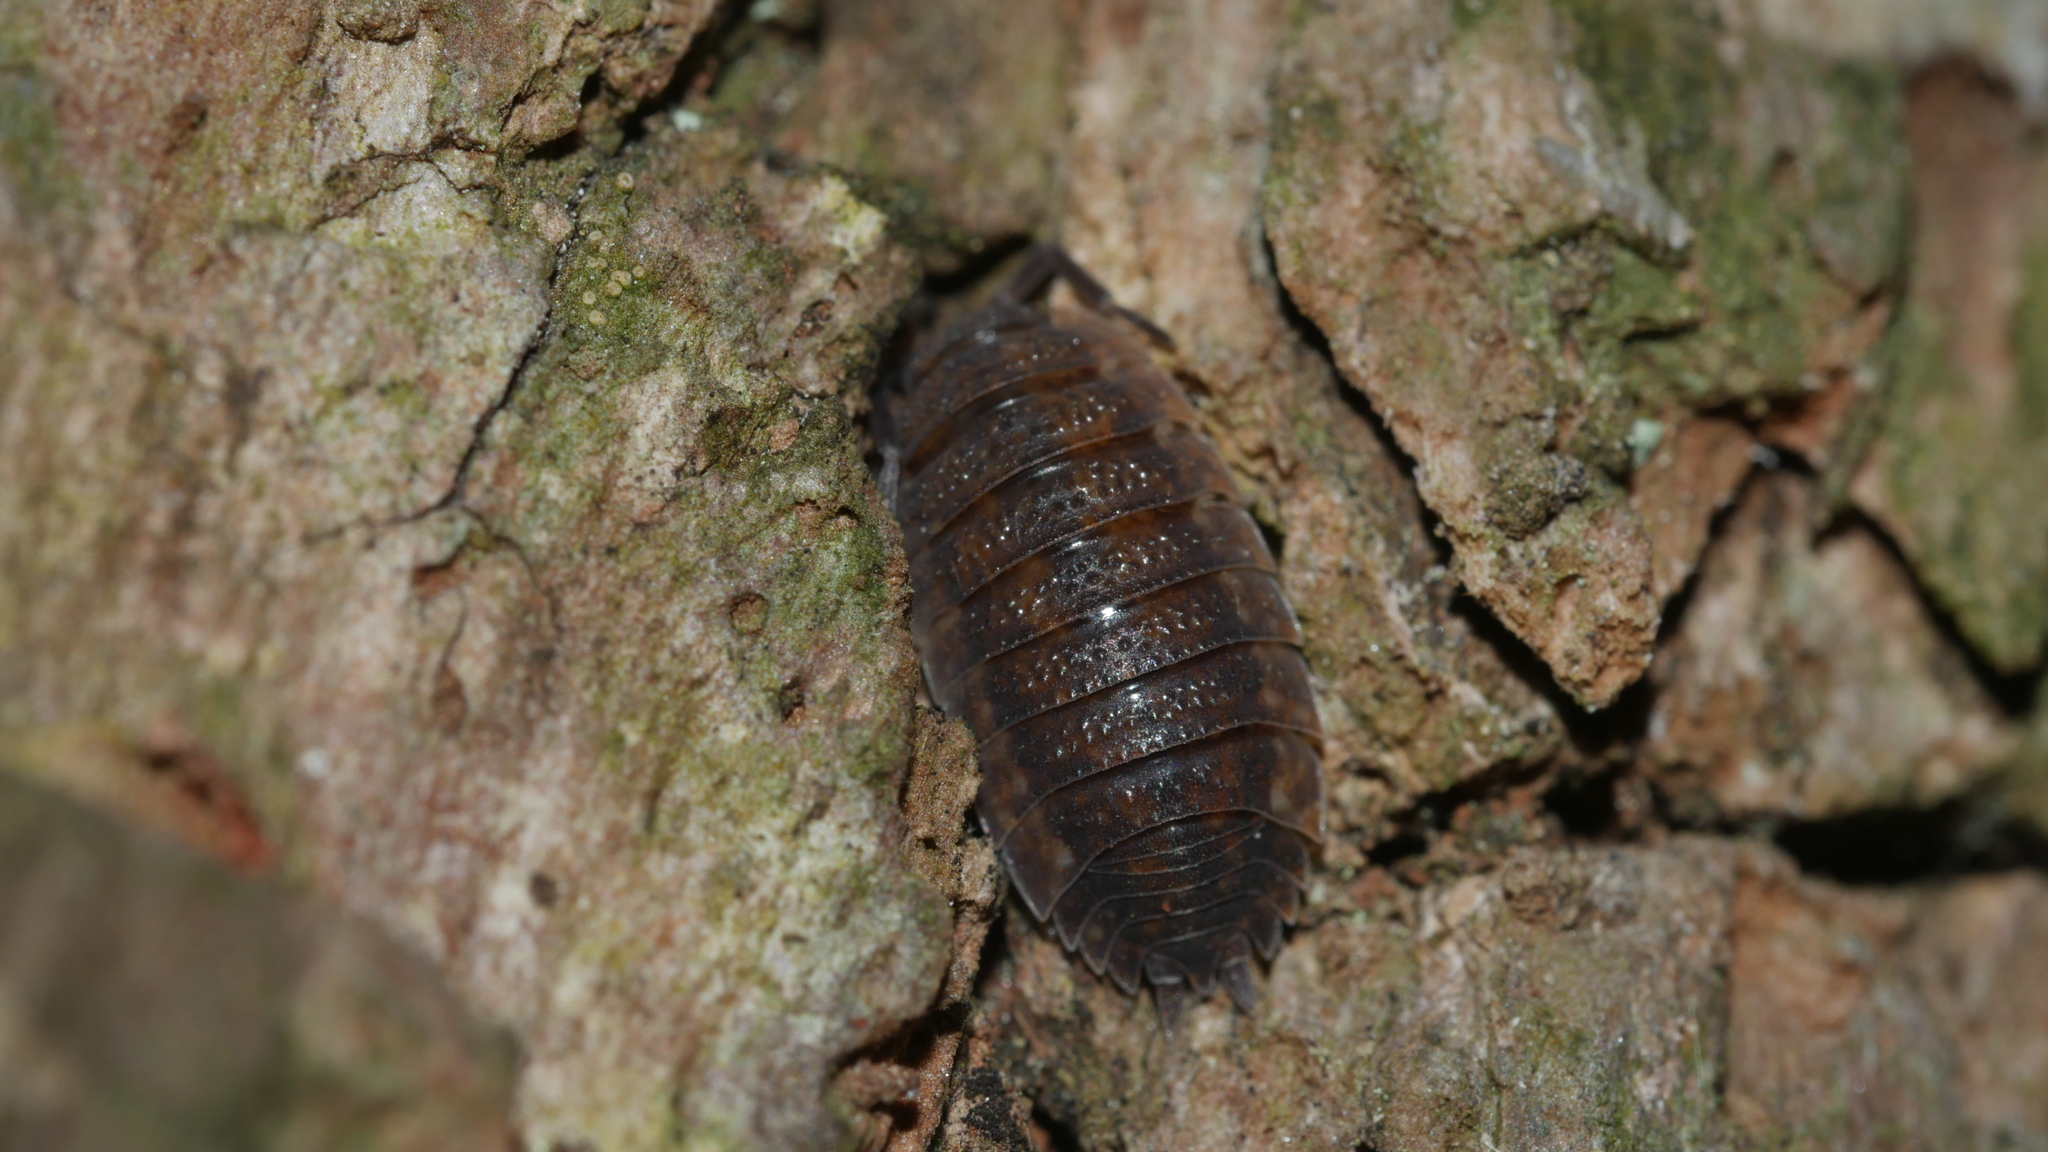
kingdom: Animalia
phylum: Arthropoda
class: Malacostraca
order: Isopoda
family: Porcellionidae
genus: Porcellio
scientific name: Porcellio scaber
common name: Common rough woodlouse
